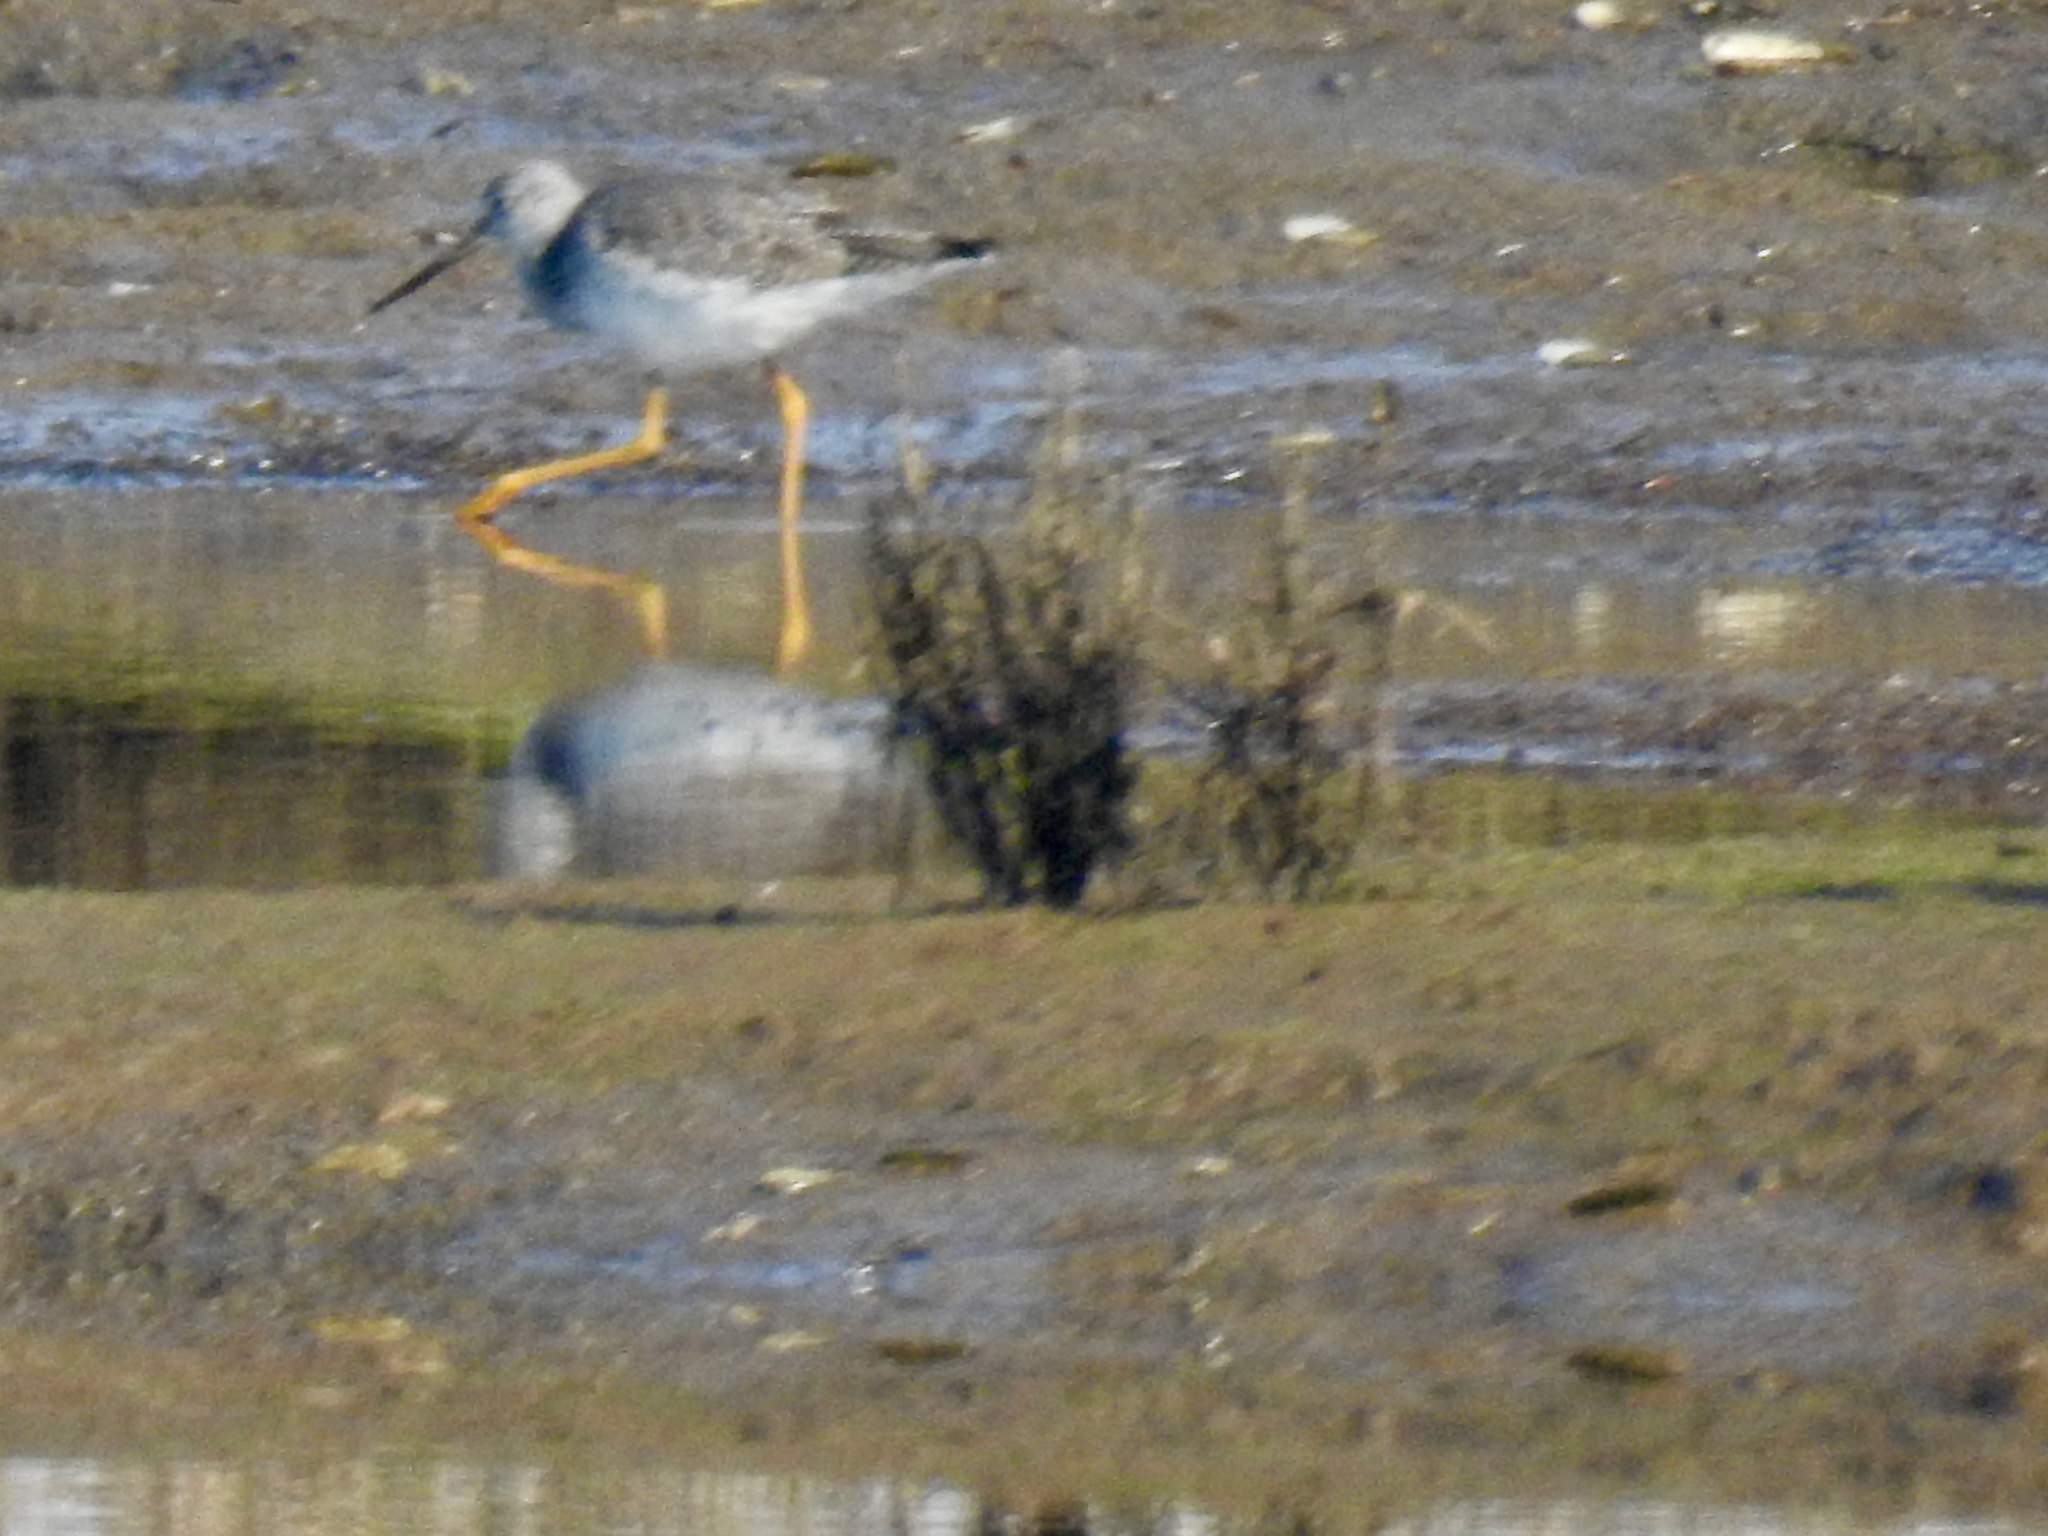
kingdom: Animalia
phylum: Chordata
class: Aves
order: Charadriiformes
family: Scolopacidae
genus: Tringa
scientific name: Tringa melanoleuca
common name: Greater yellowlegs
